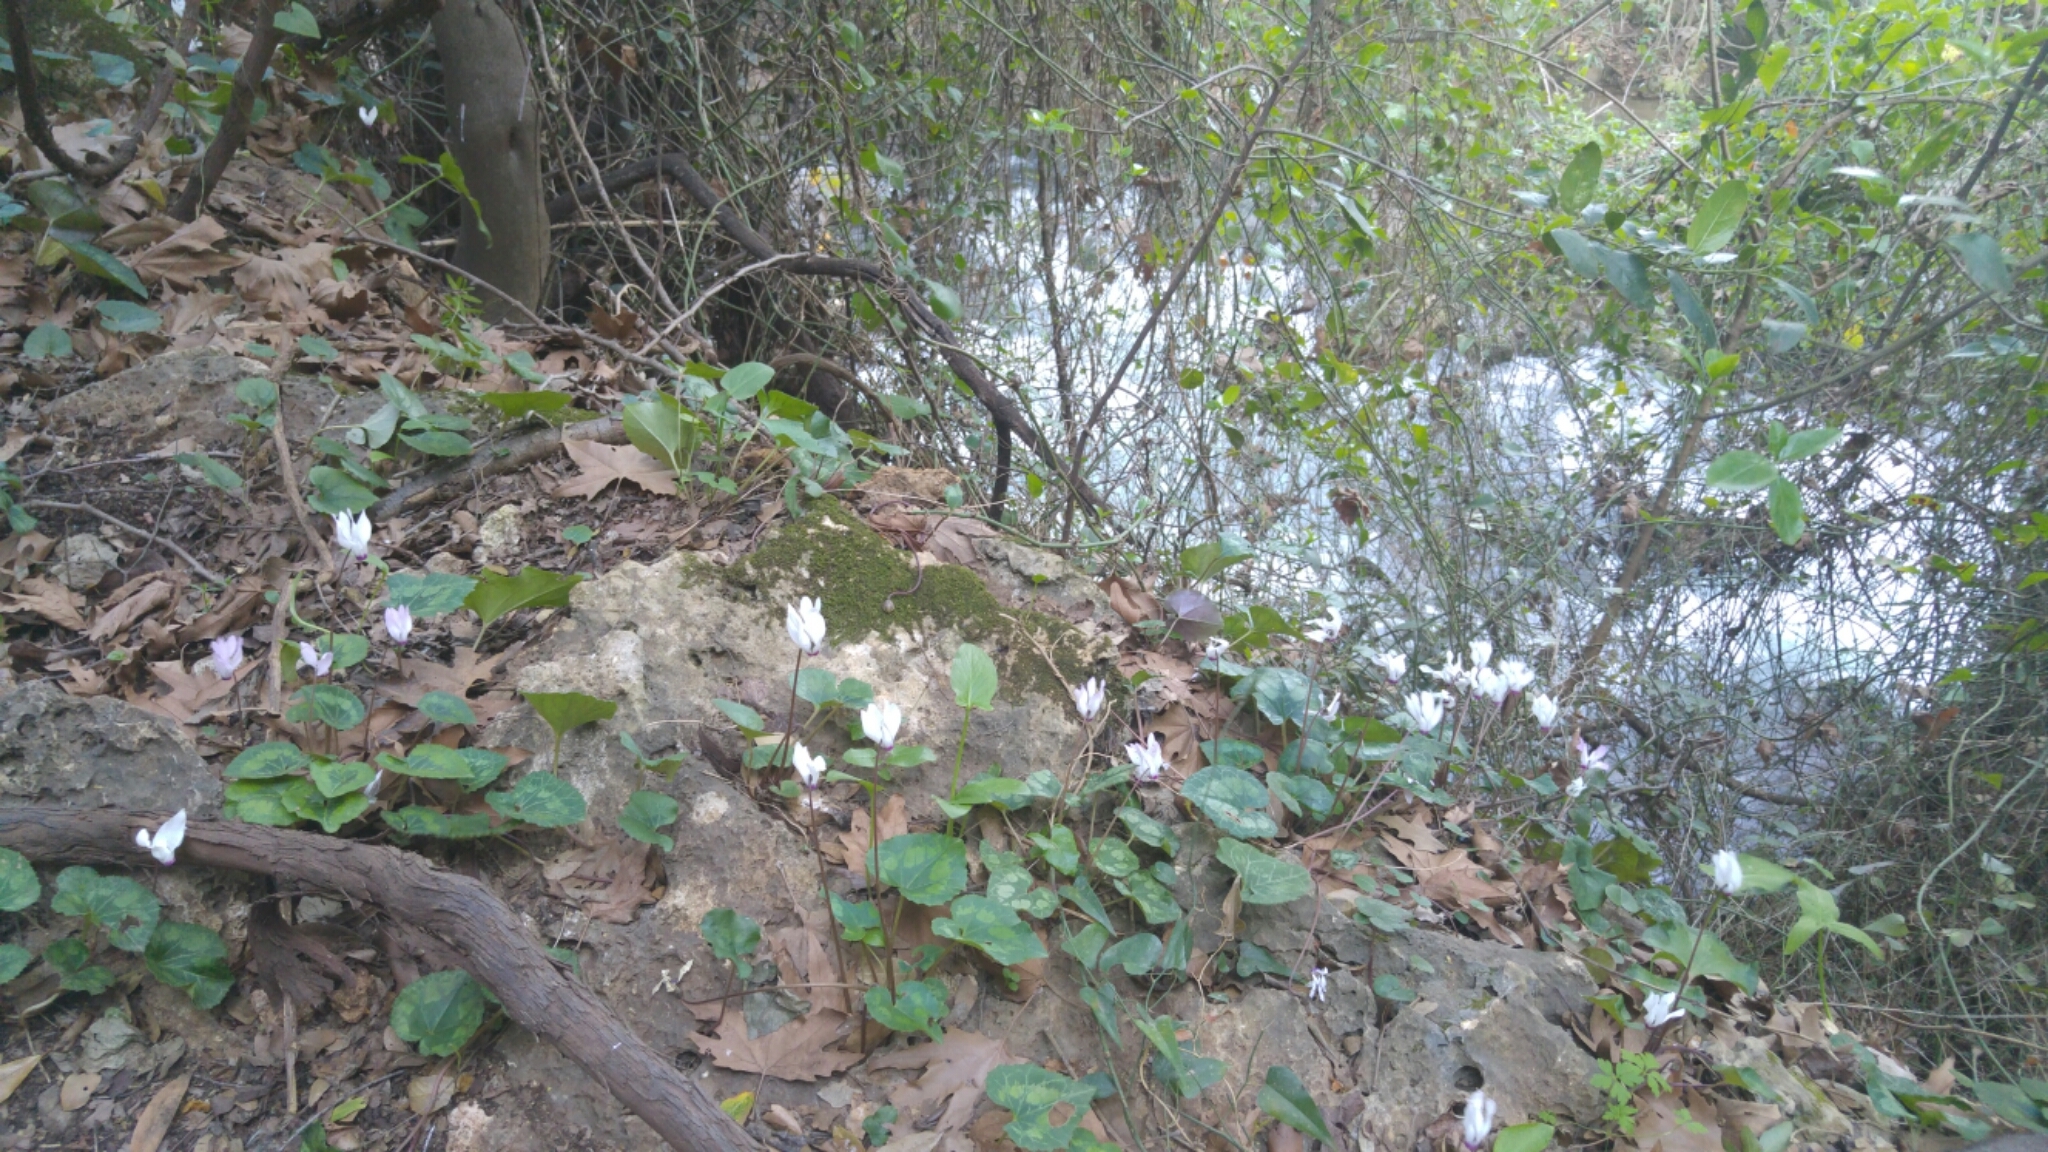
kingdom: Plantae
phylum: Tracheophyta
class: Magnoliopsida
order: Ericales
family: Primulaceae
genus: Cyclamen
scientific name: Cyclamen persicum
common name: Florist's cyclamen
